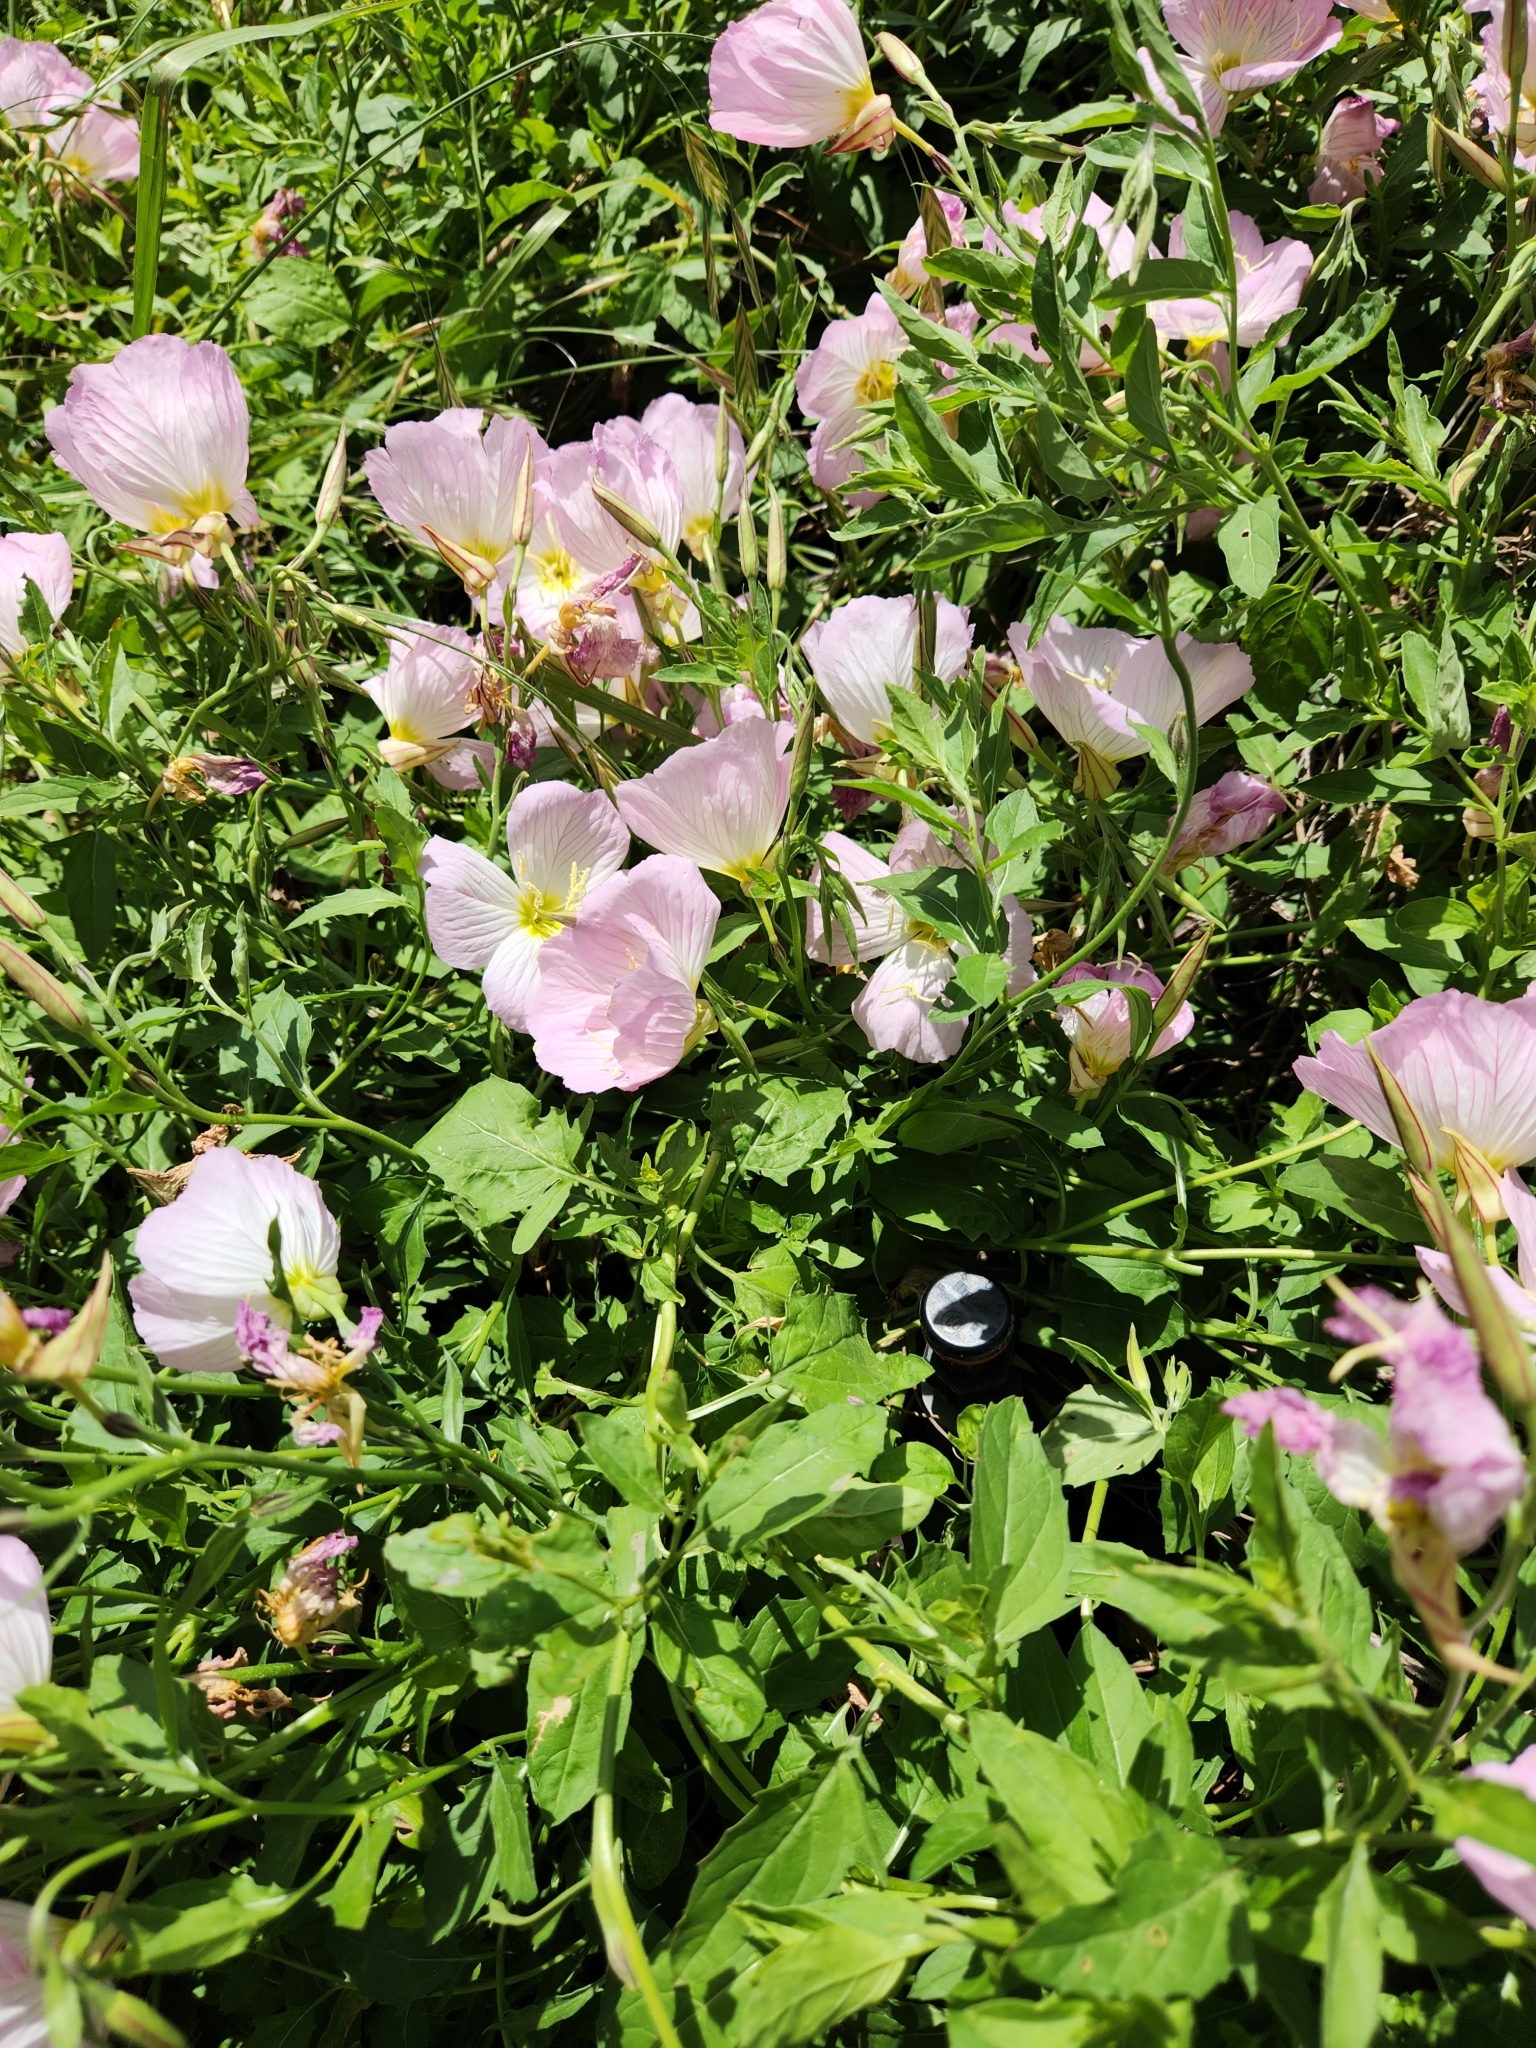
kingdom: Plantae
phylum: Tracheophyta
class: Magnoliopsida
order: Myrtales
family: Onagraceae
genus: Oenothera
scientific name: Oenothera speciosa
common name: White evening-primrose
